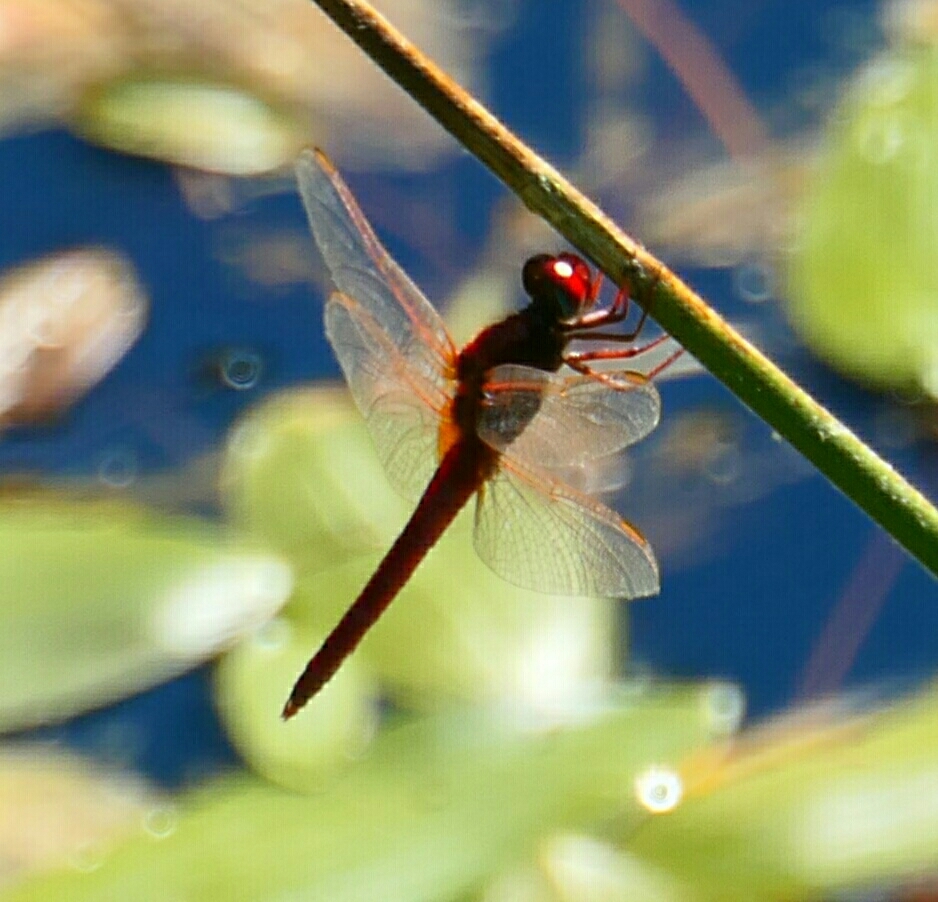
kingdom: Animalia
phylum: Arthropoda
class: Insecta
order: Odonata
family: Libellulidae
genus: Crocothemis
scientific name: Crocothemis erythraea
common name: Scarlet dragonfly
